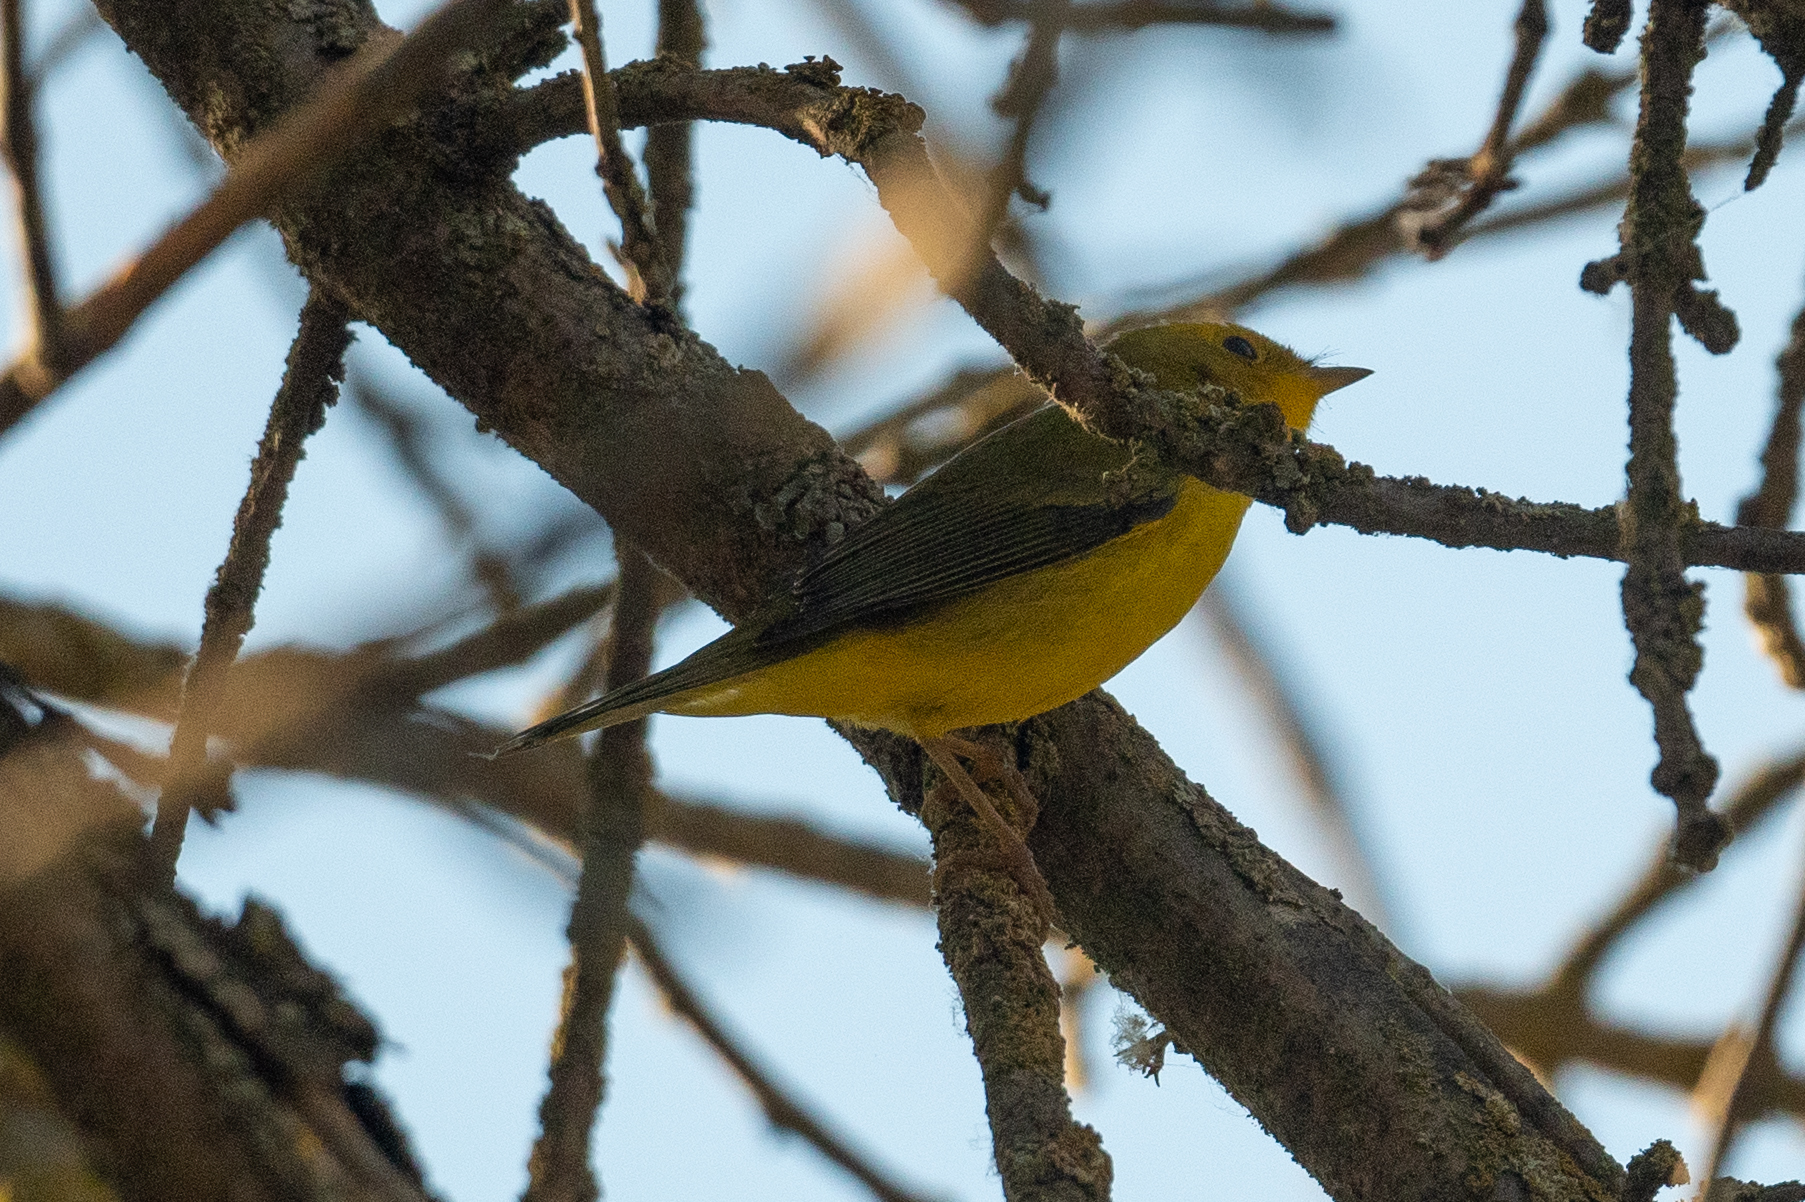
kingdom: Animalia
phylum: Chordata
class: Aves
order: Passeriformes
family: Parulidae
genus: Cardellina
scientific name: Cardellina pusilla
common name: Wilson's warbler
